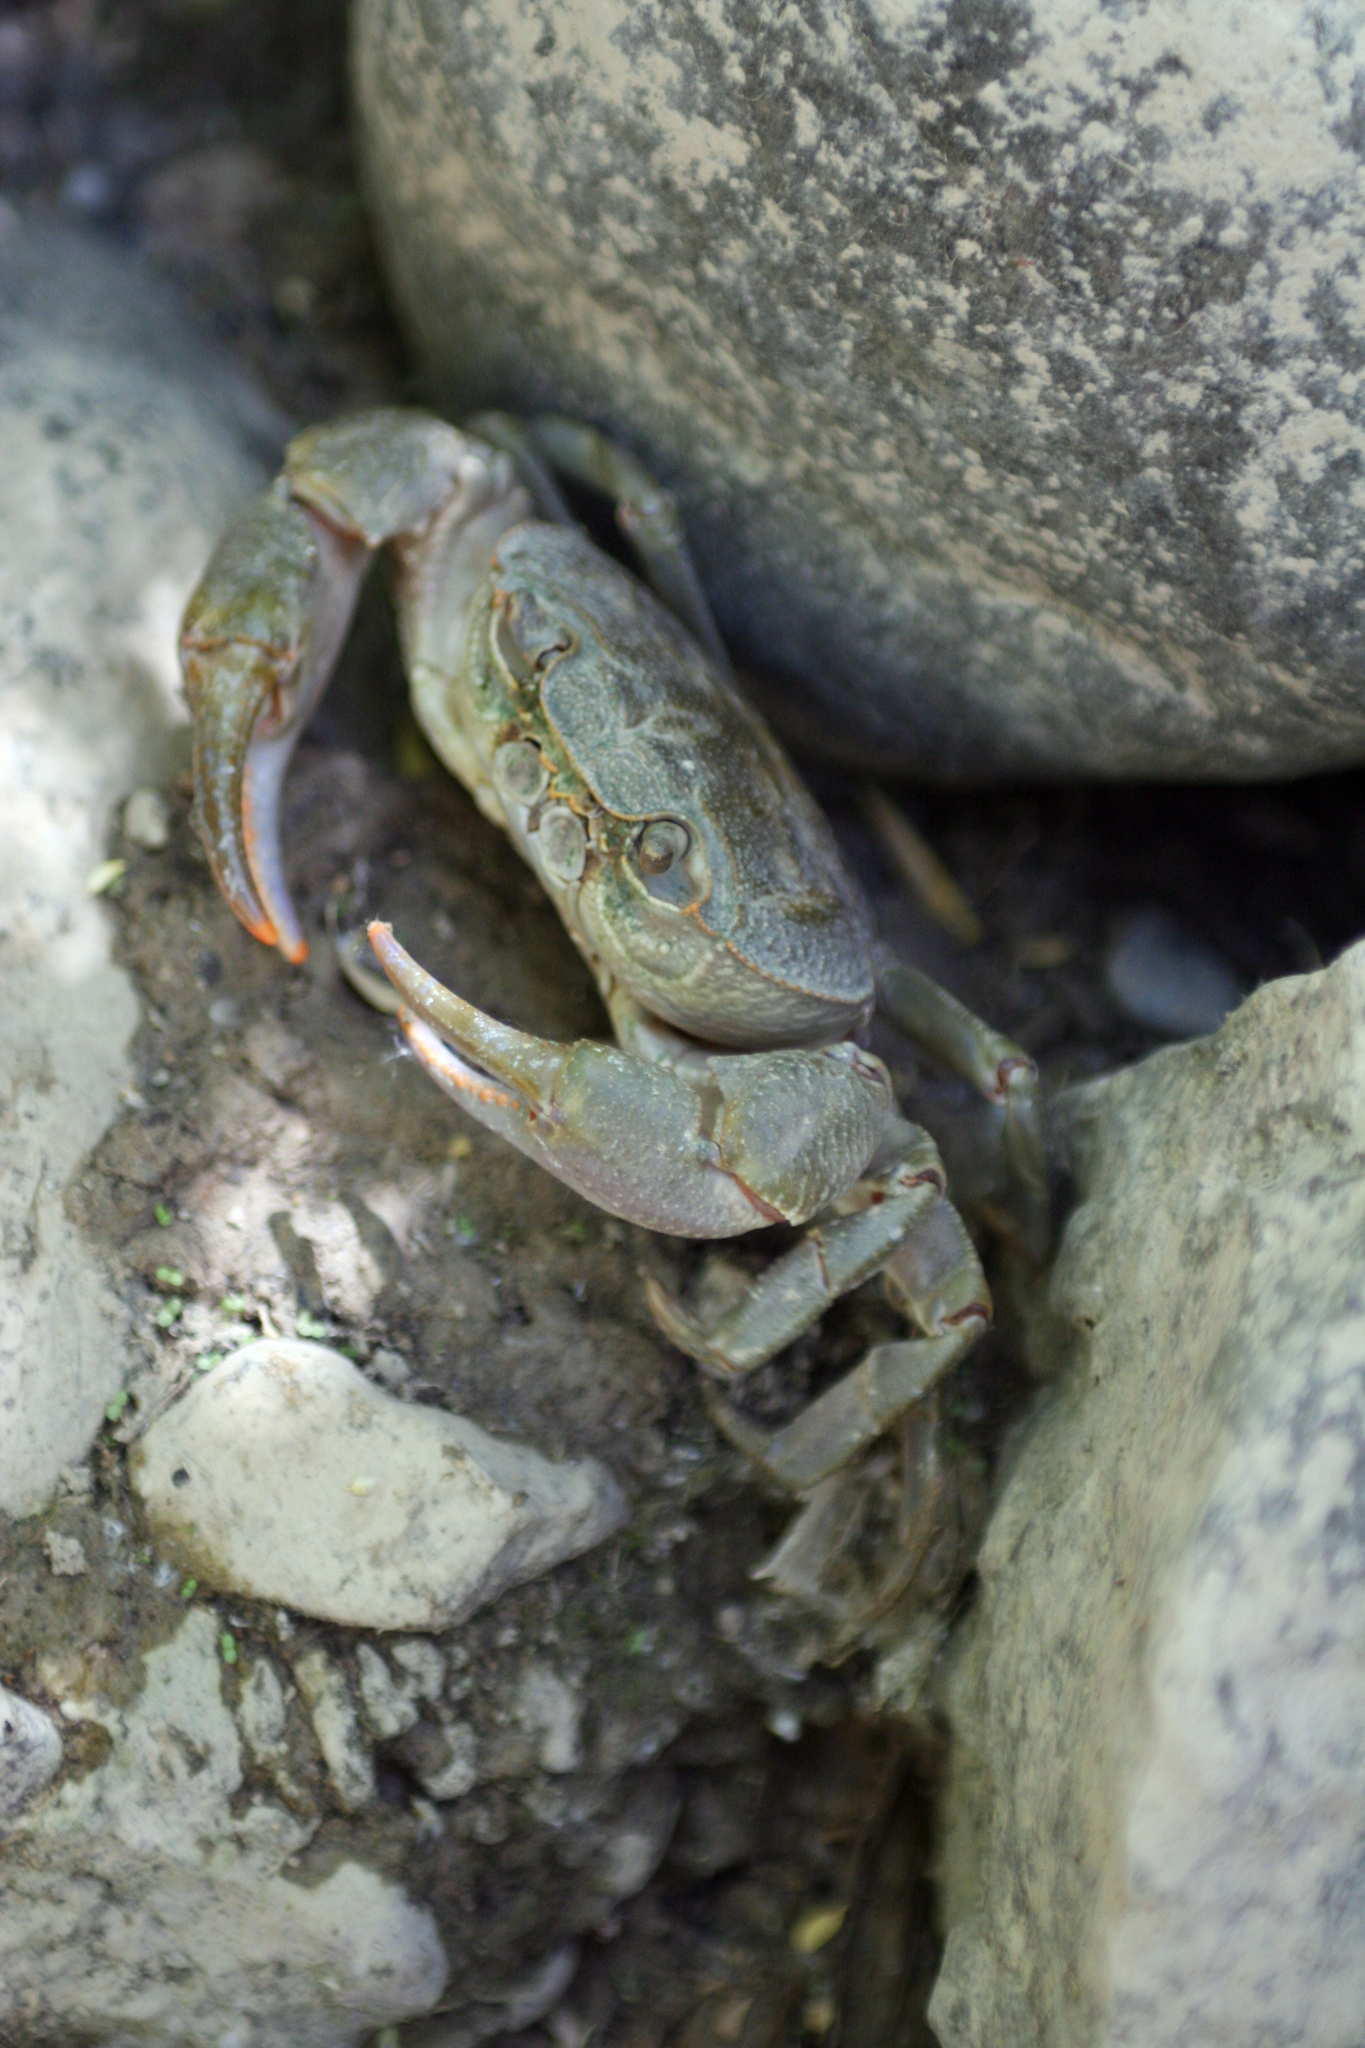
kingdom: Animalia
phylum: Arthropoda
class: Malacostraca
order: Decapoda
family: Potamidae
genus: Potamon
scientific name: Potamon persicum
